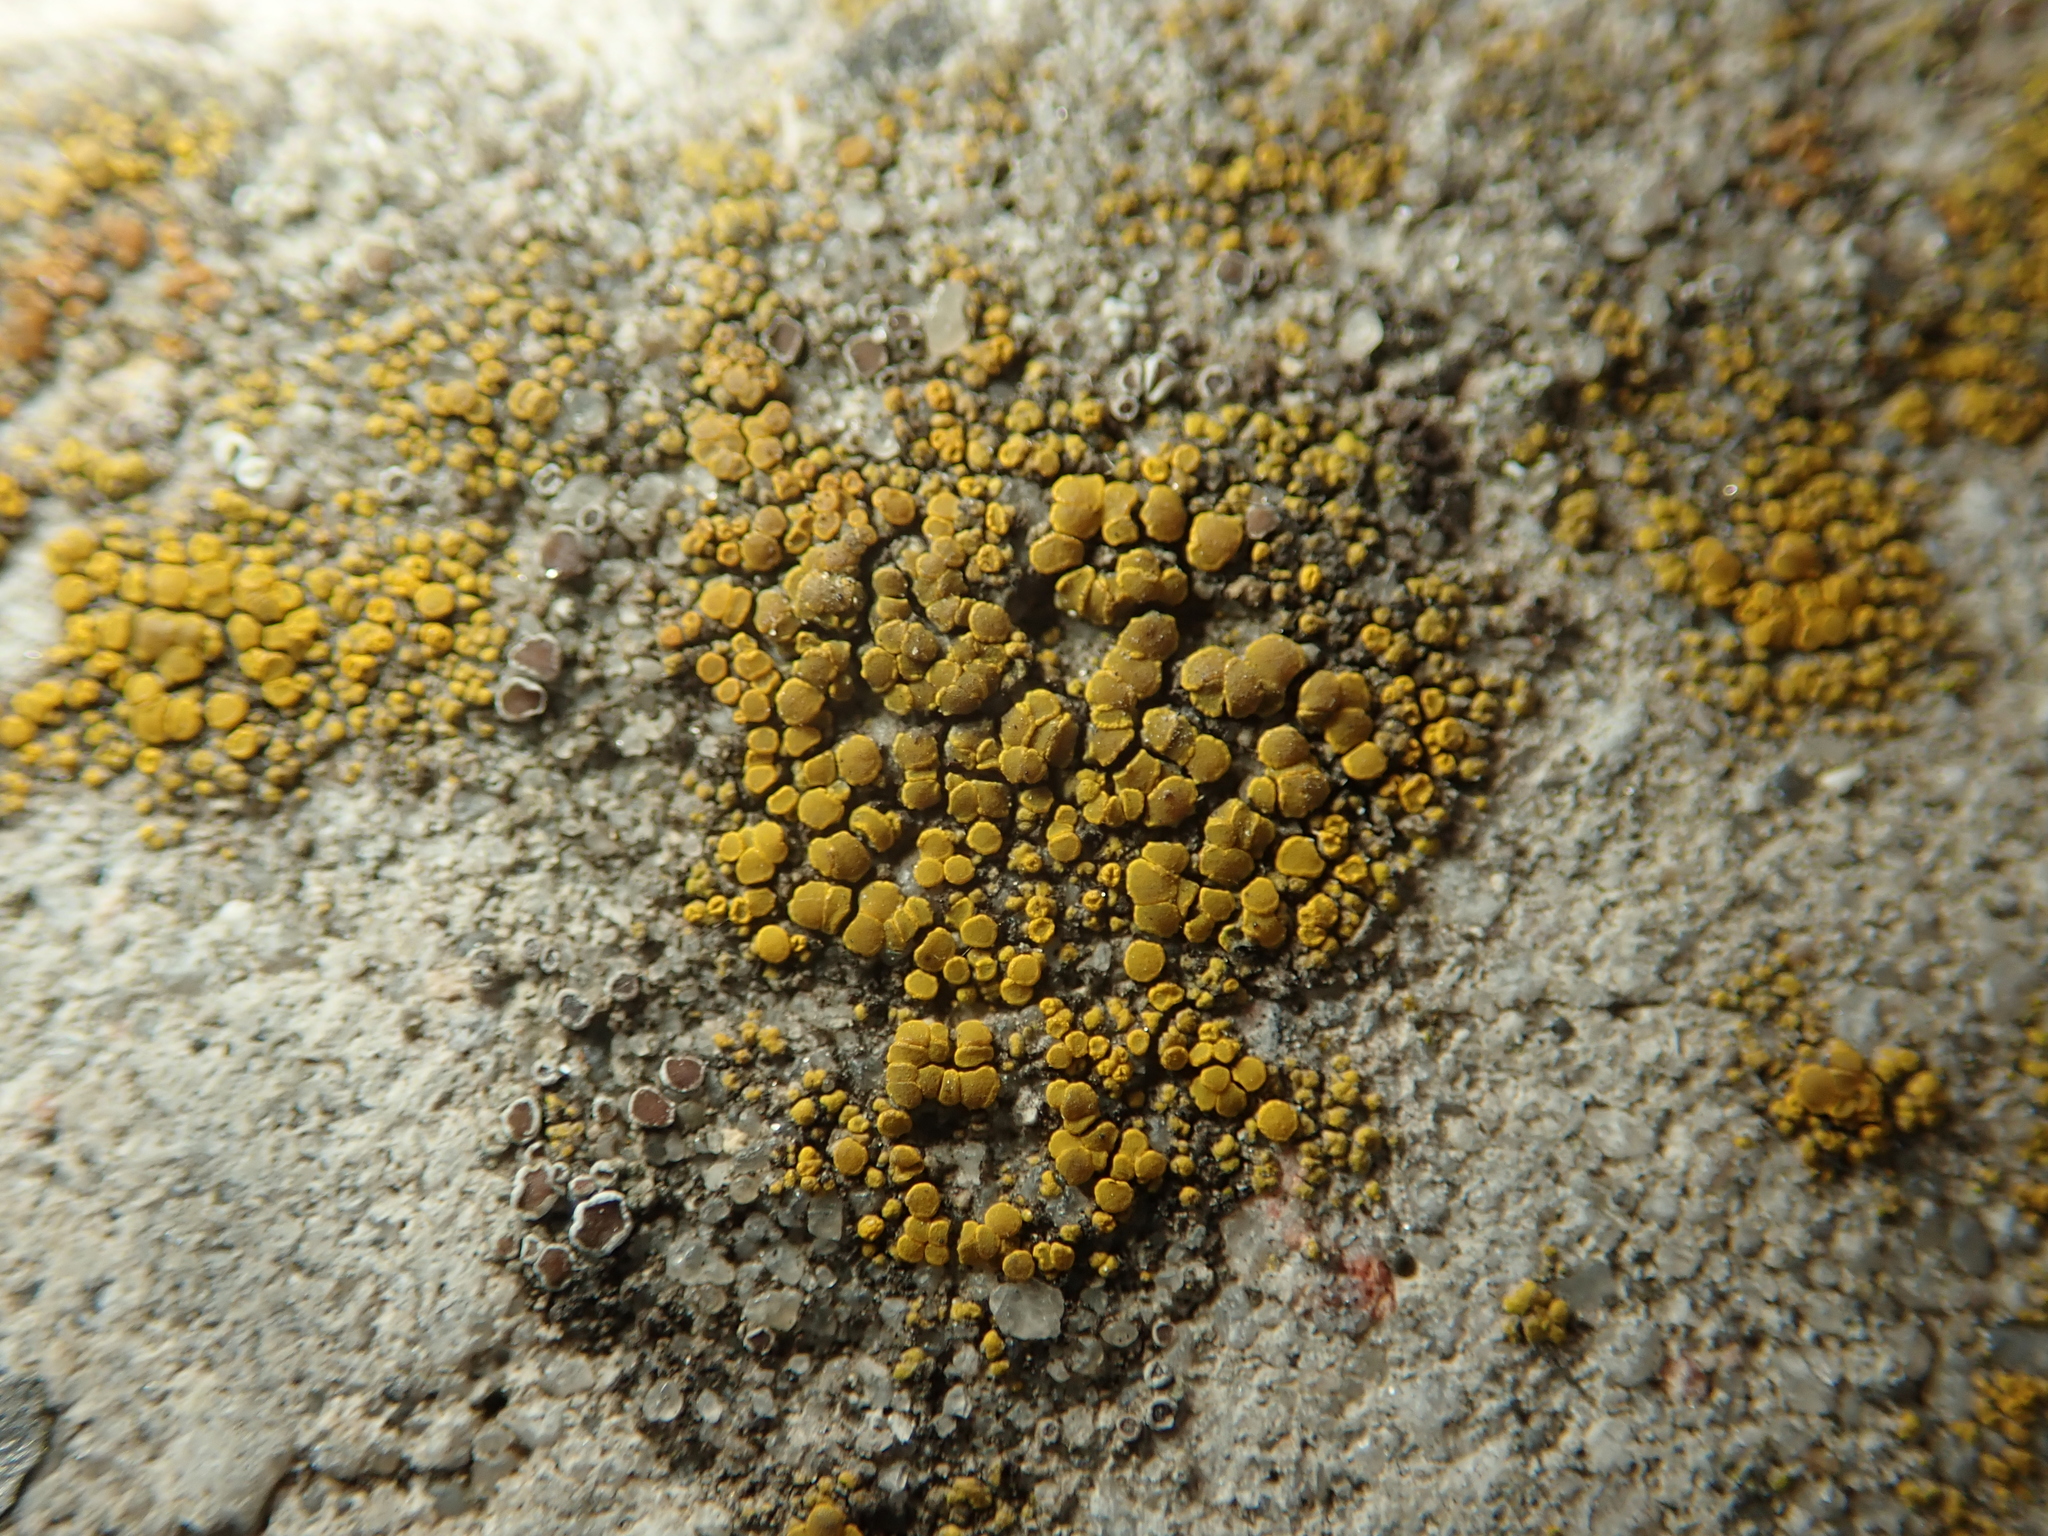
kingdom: Fungi
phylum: Ascomycota
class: Candelariomycetes
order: Candelariales
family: Candelariaceae
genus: Candelariella
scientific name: Candelariella vitellina
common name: Common goldspeck
